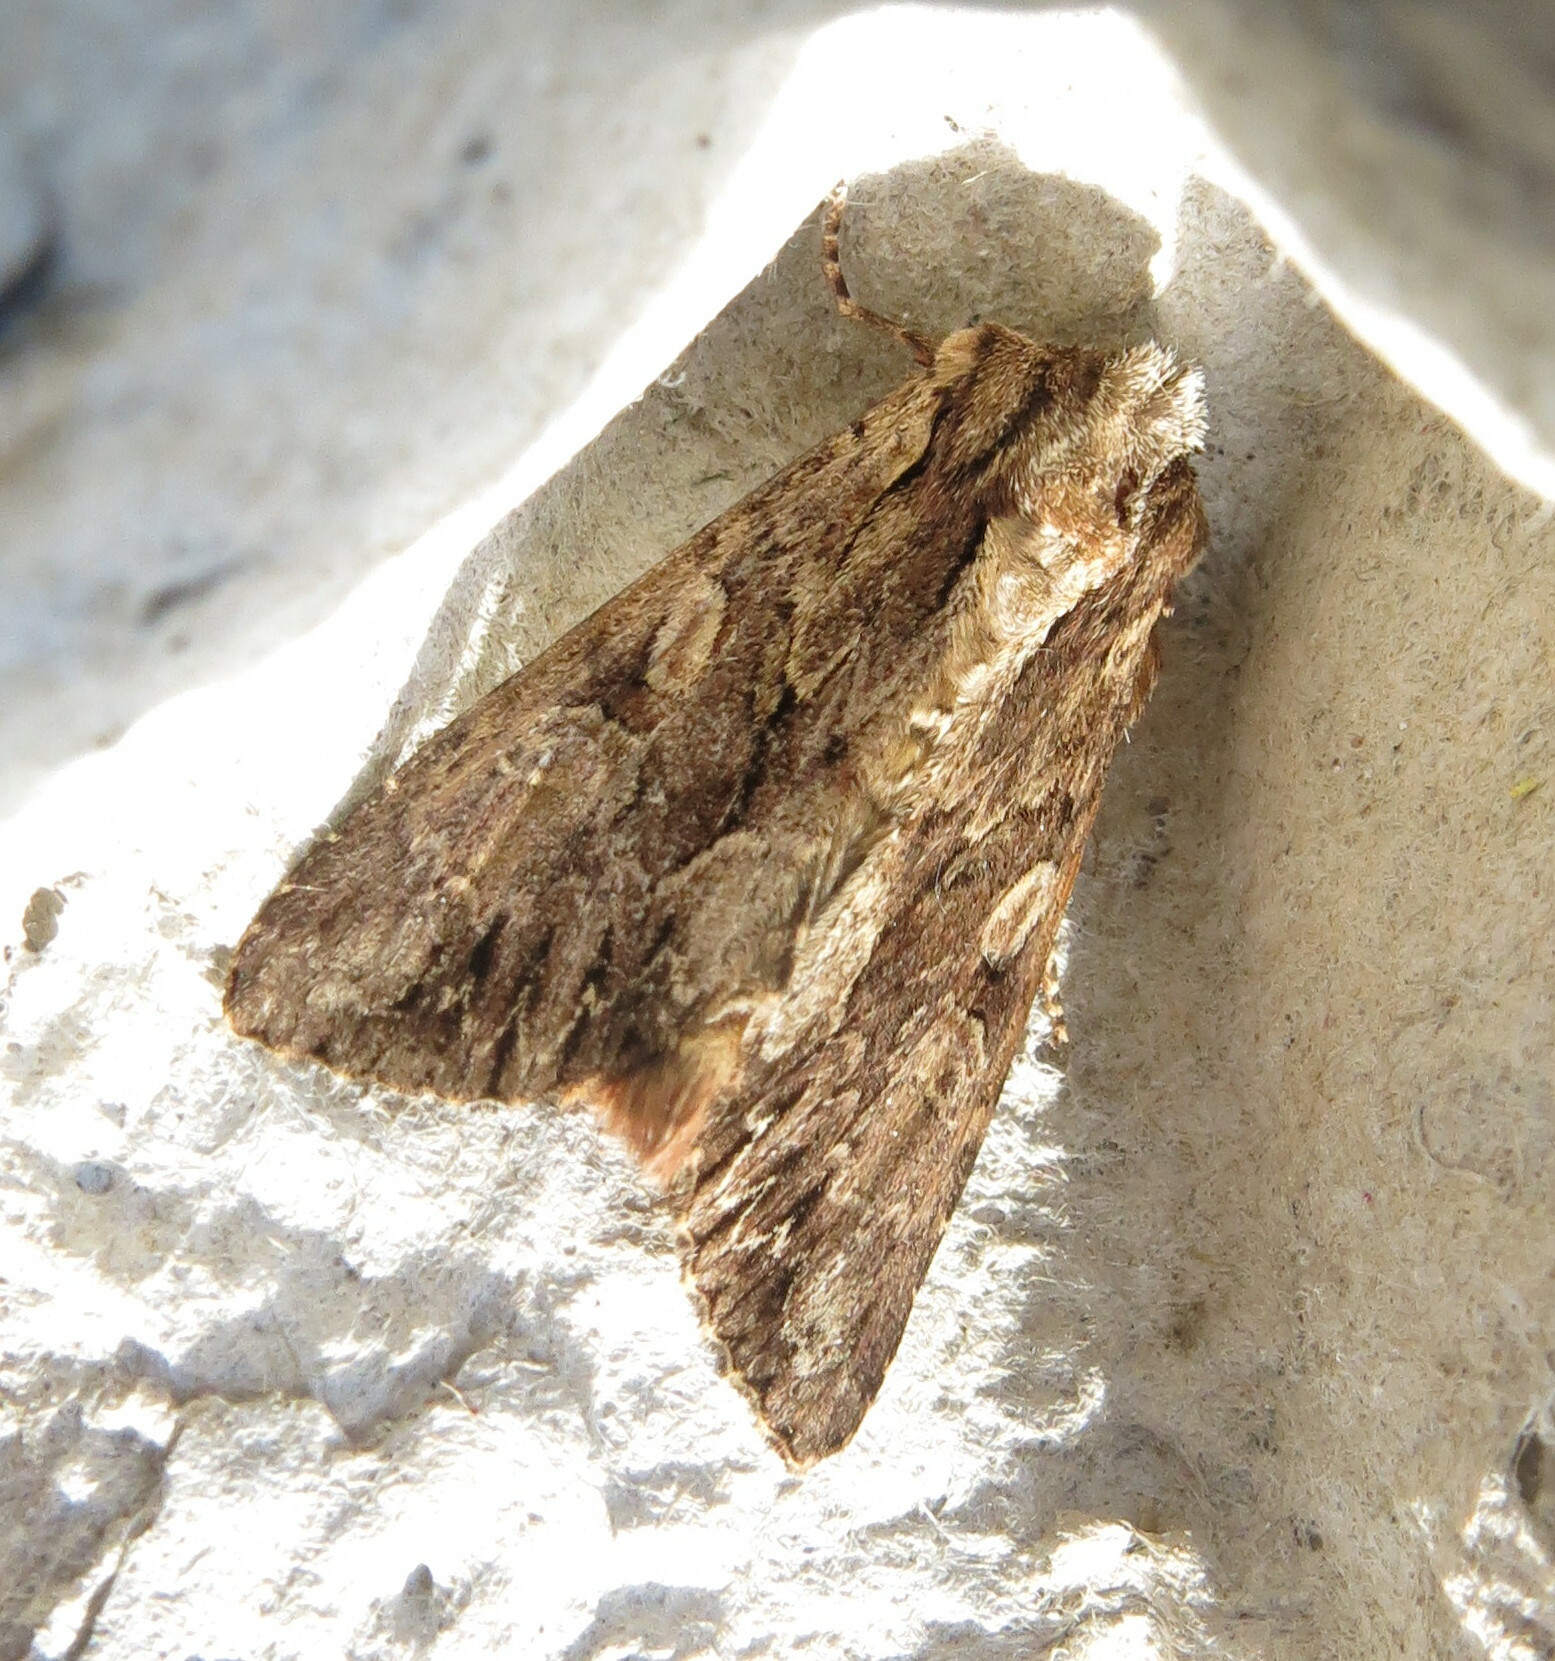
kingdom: Animalia
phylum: Arthropoda
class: Insecta
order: Lepidoptera
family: Noctuidae
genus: Apamea
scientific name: Apamea monoglypha
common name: Dark arches
